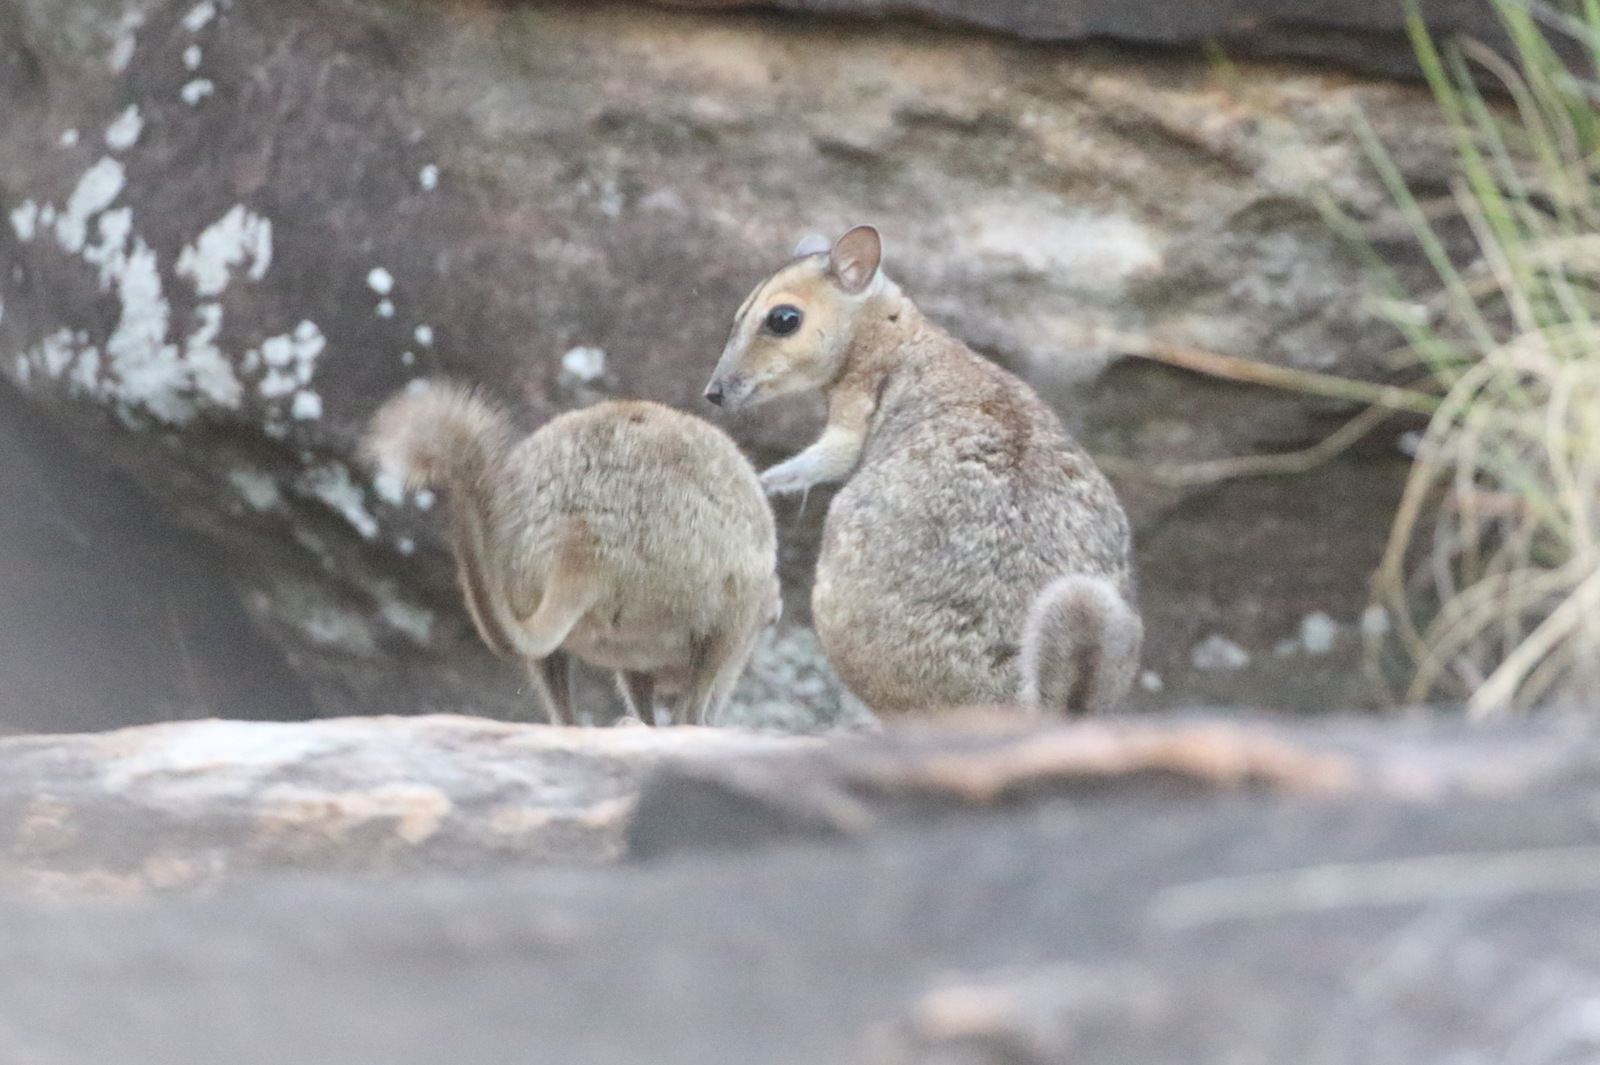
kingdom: Animalia
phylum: Chordata
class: Mammalia
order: Diprotodontia
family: Macropodidae
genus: Petrogale
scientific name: Petrogale burbidgei
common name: Monjon
